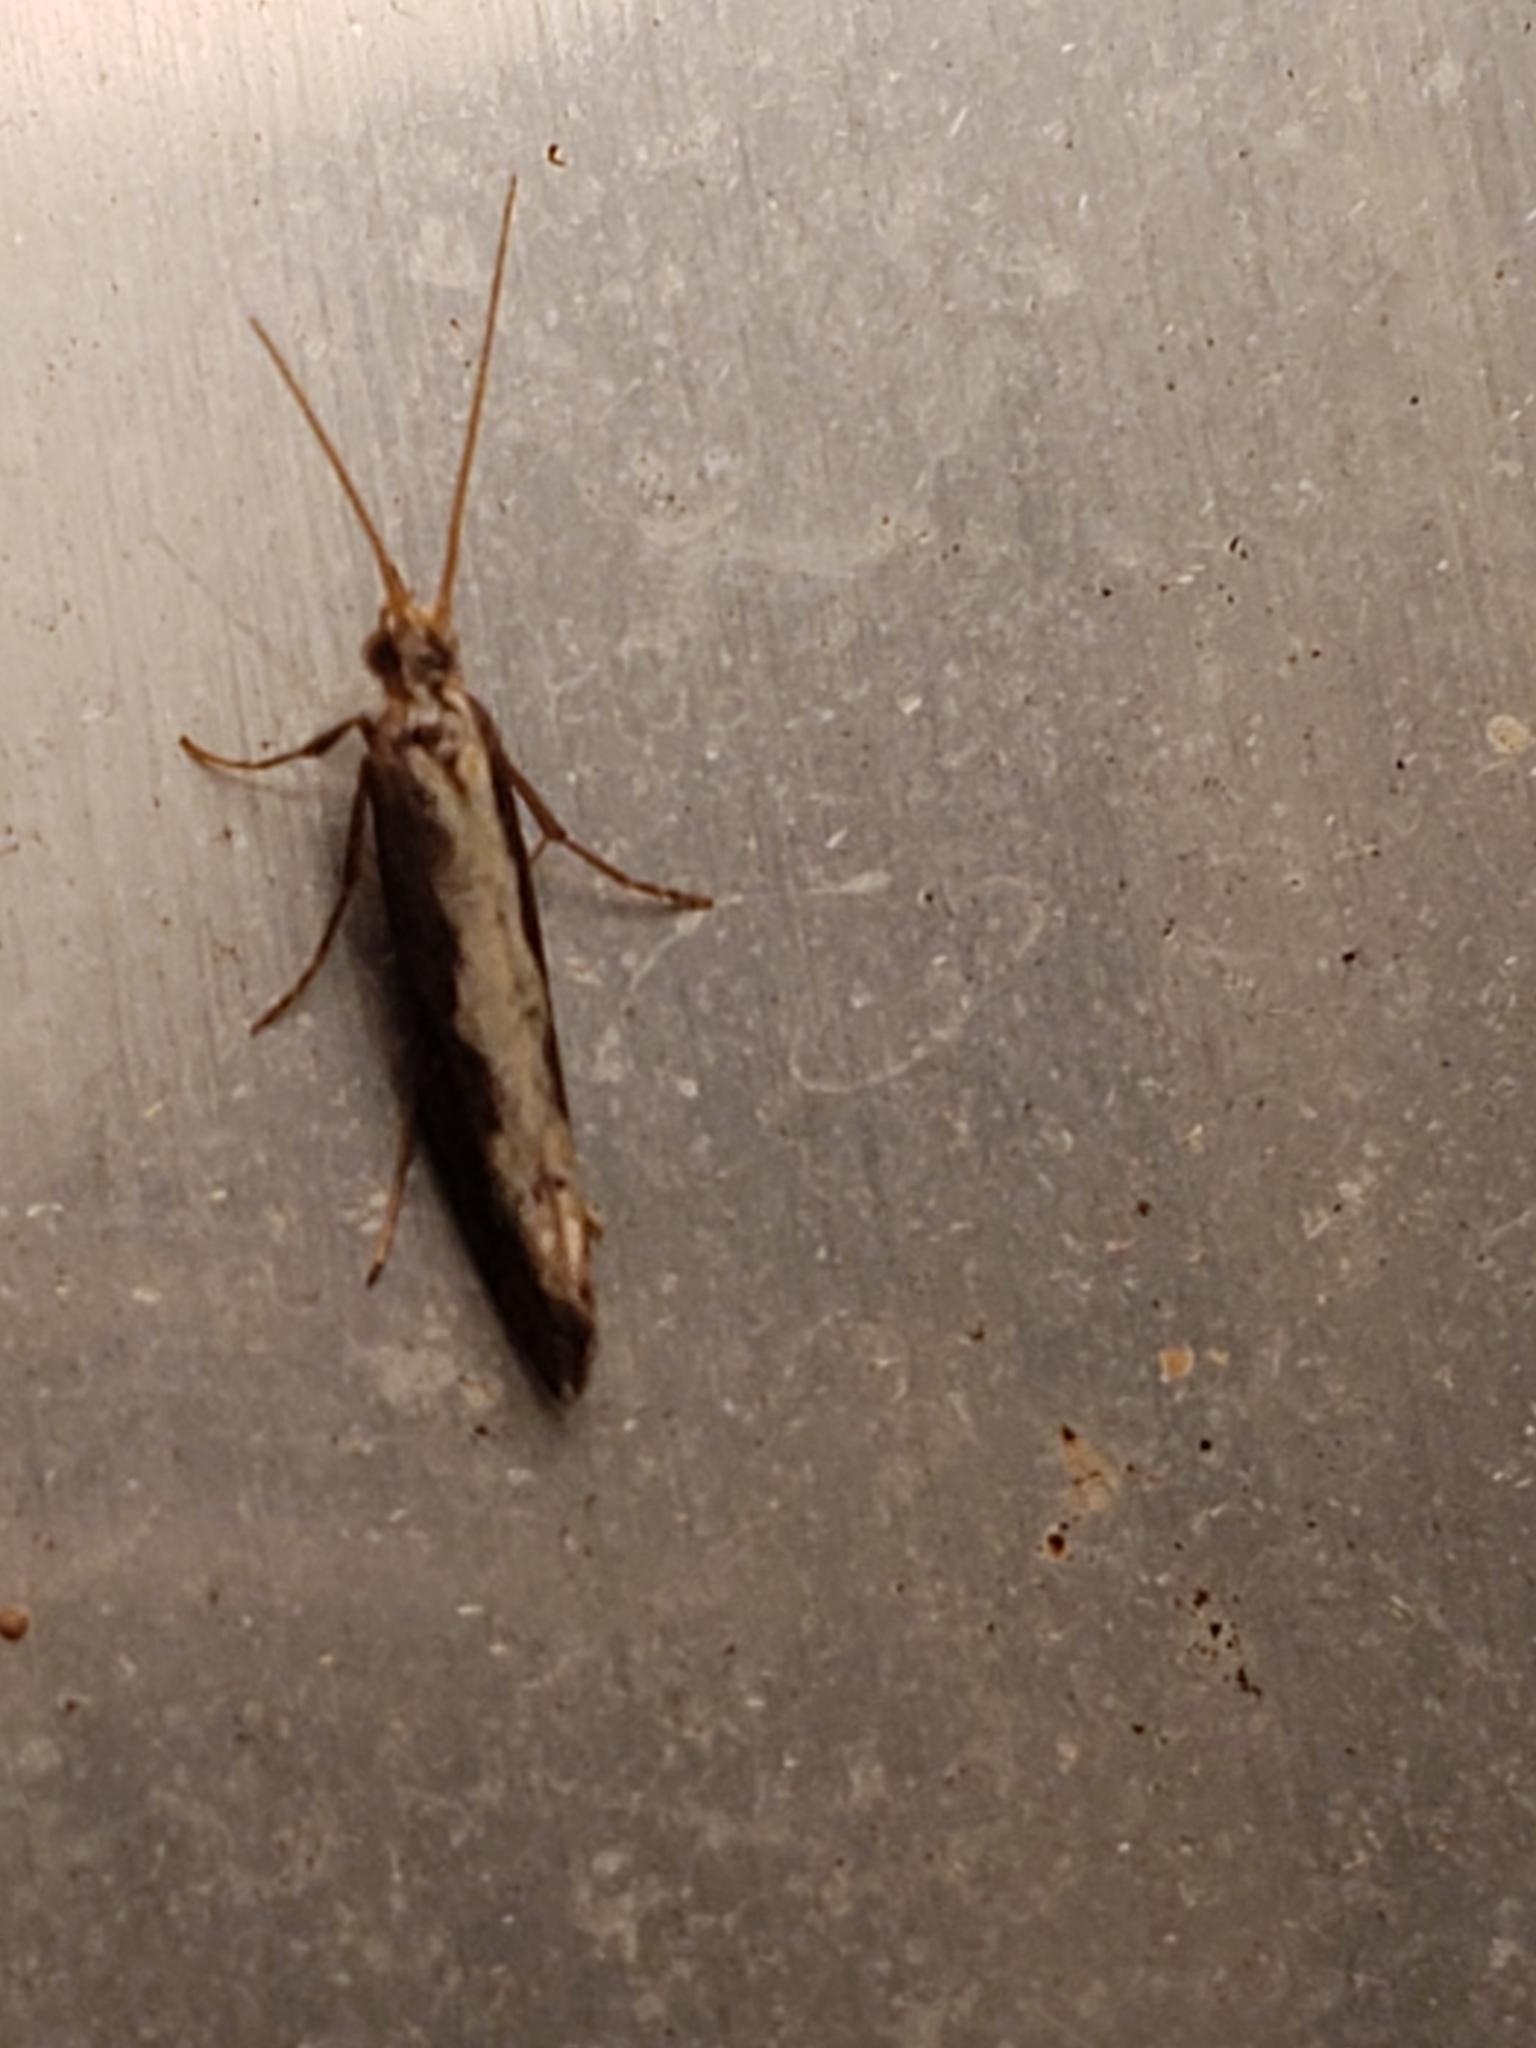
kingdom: Animalia
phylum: Arthropoda
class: Insecta
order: Lepidoptera
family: Plutellidae
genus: Plutella
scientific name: Plutella xylostella
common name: Diamond-back moth
